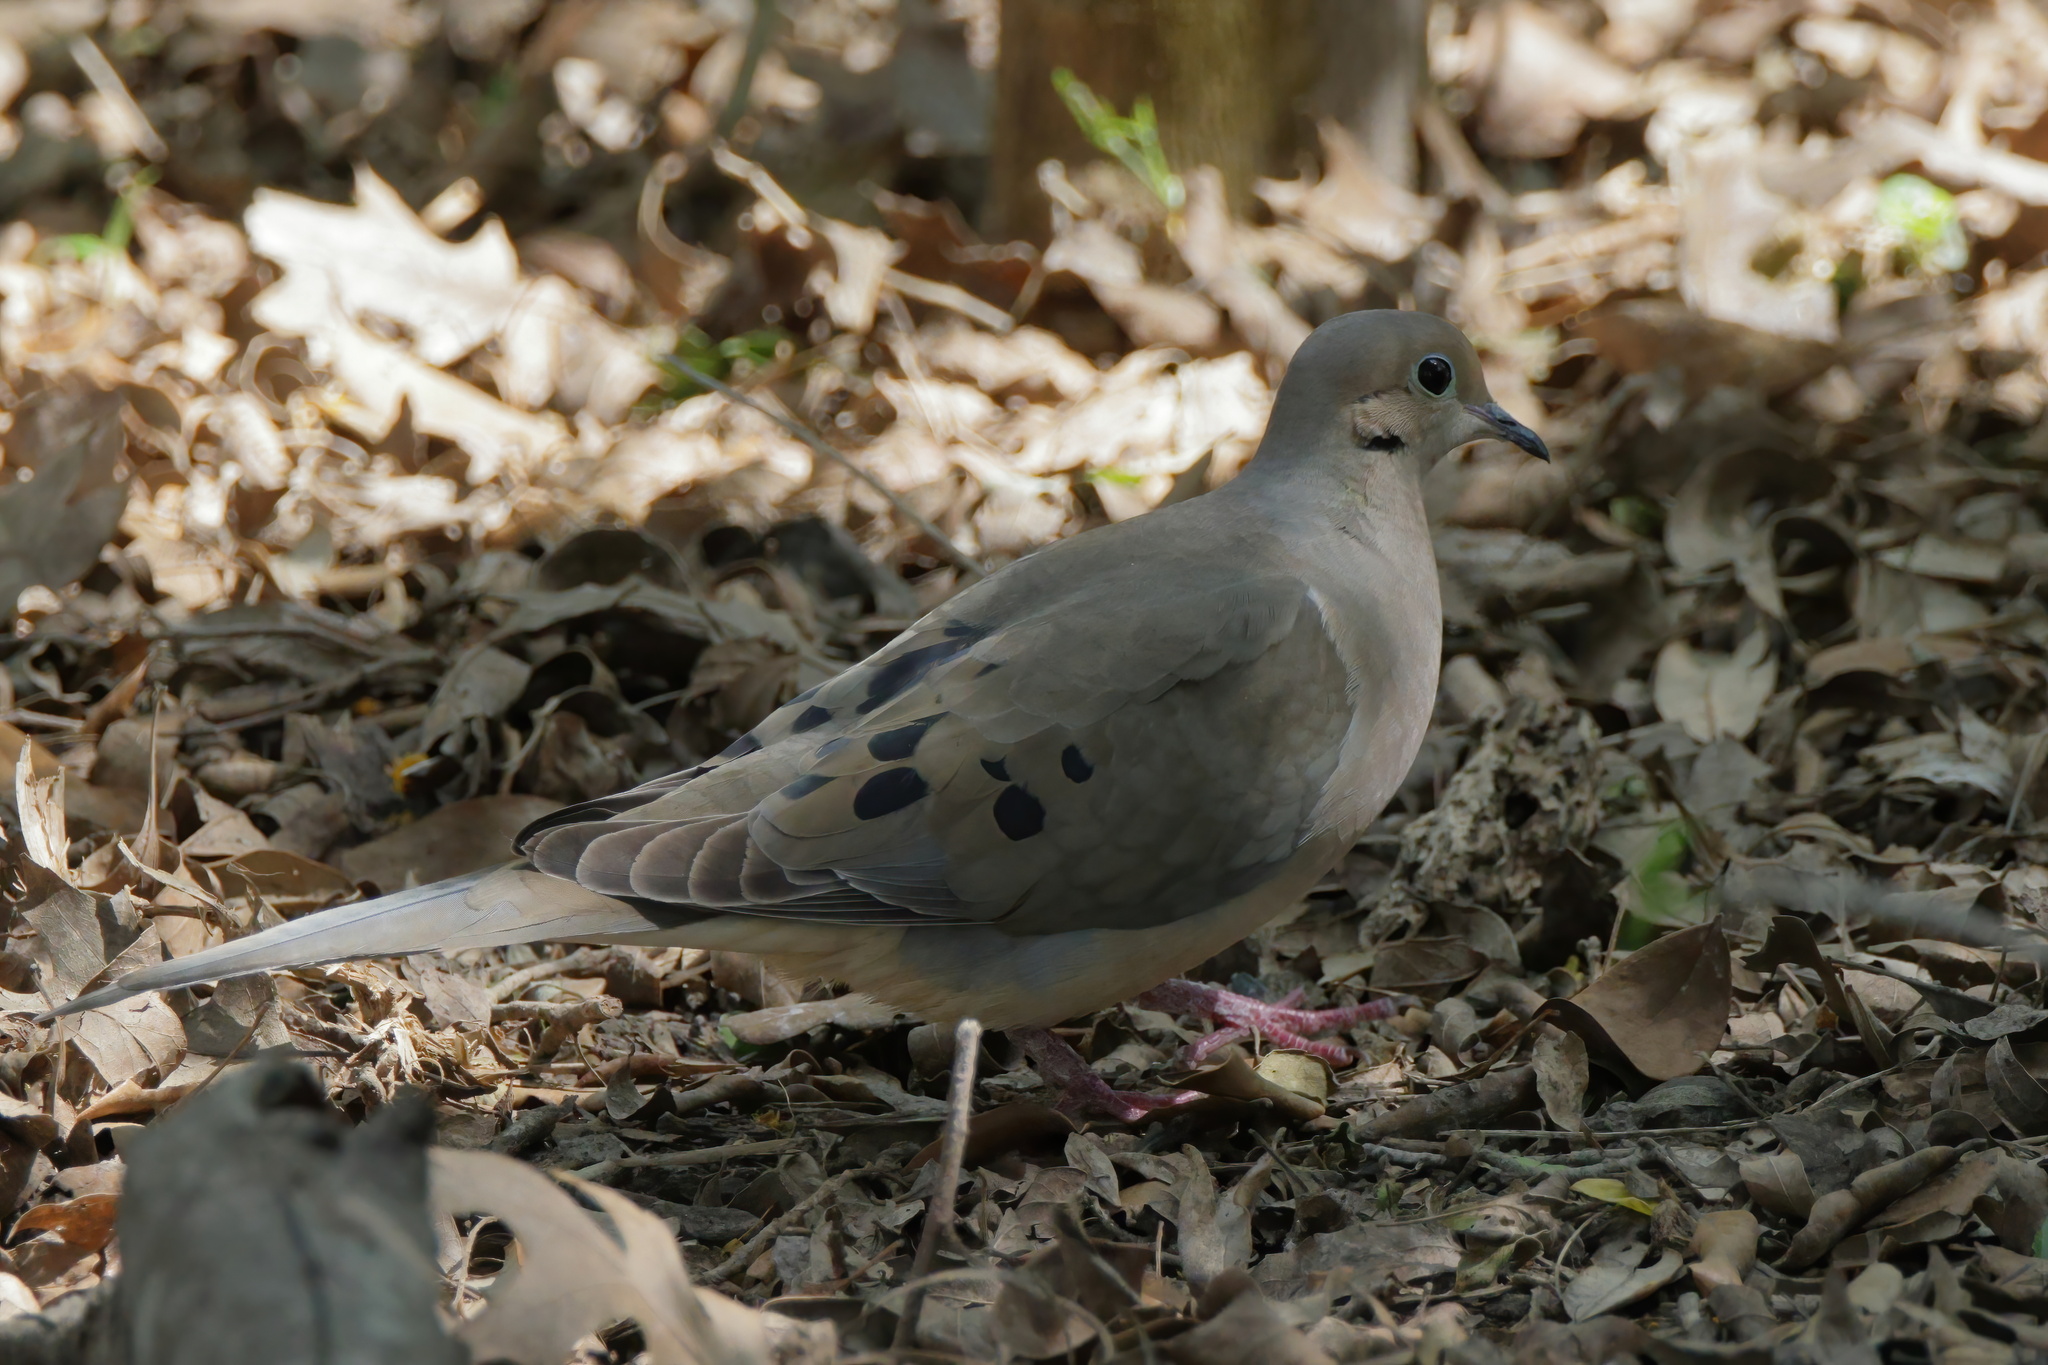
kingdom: Animalia
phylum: Chordata
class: Aves
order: Columbiformes
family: Columbidae
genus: Zenaida
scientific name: Zenaida macroura
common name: Mourning dove
